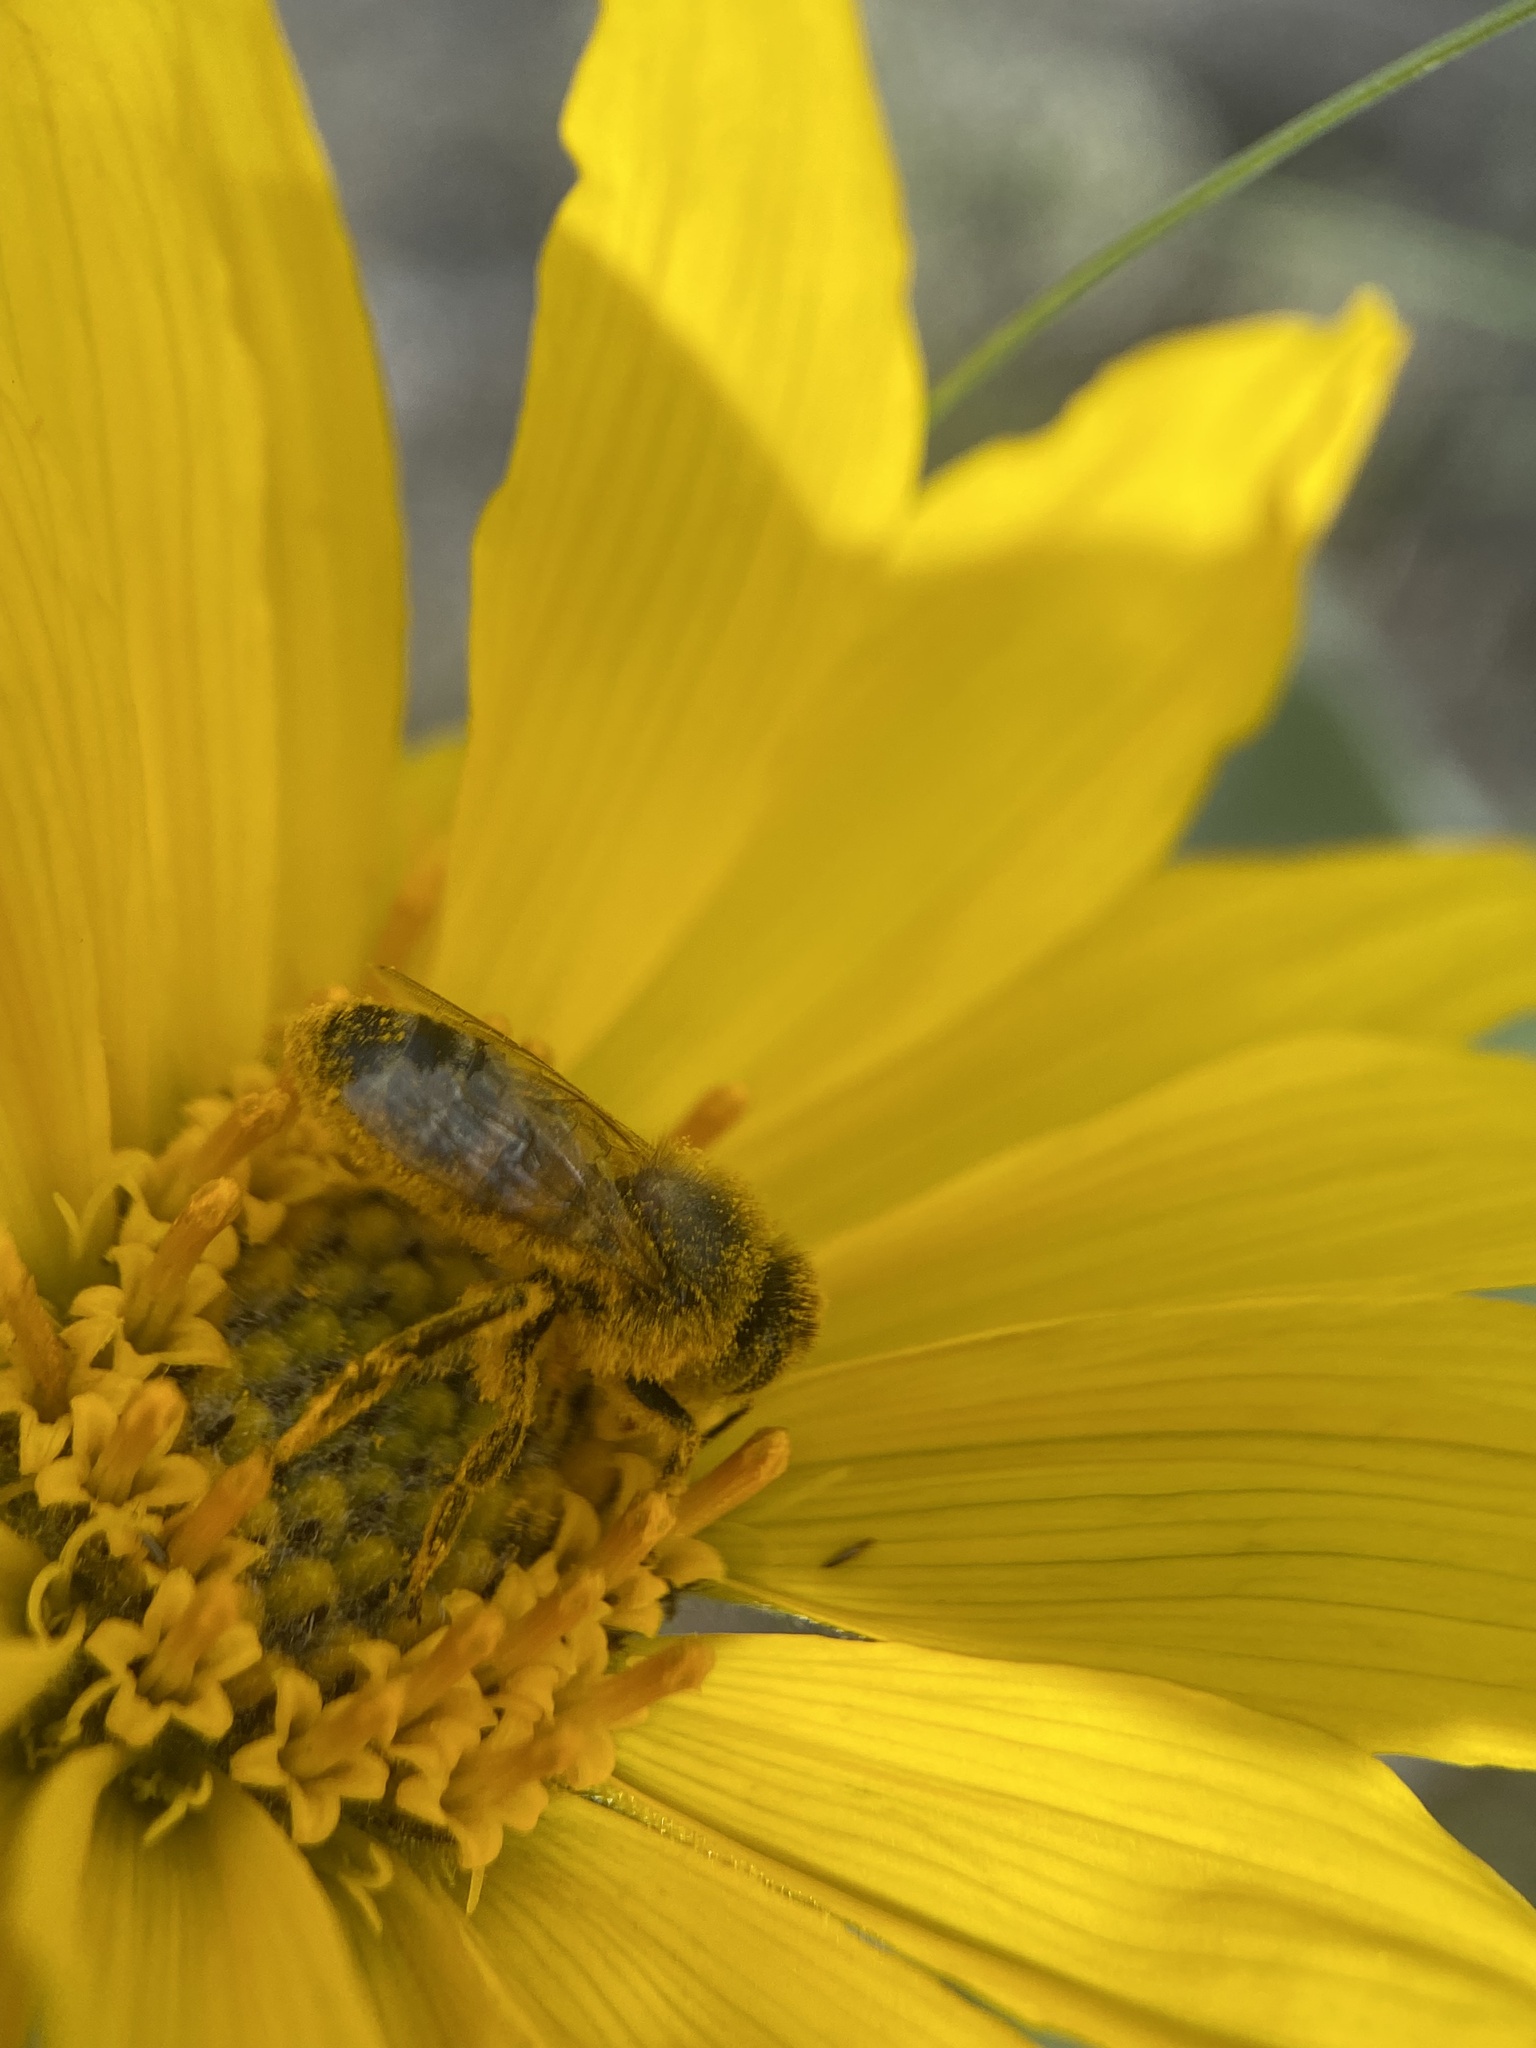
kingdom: Animalia
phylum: Arthropoda
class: Insecta
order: Hymenoptera
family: Apidae
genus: Apis
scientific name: Apis mellifera
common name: Honey bee
